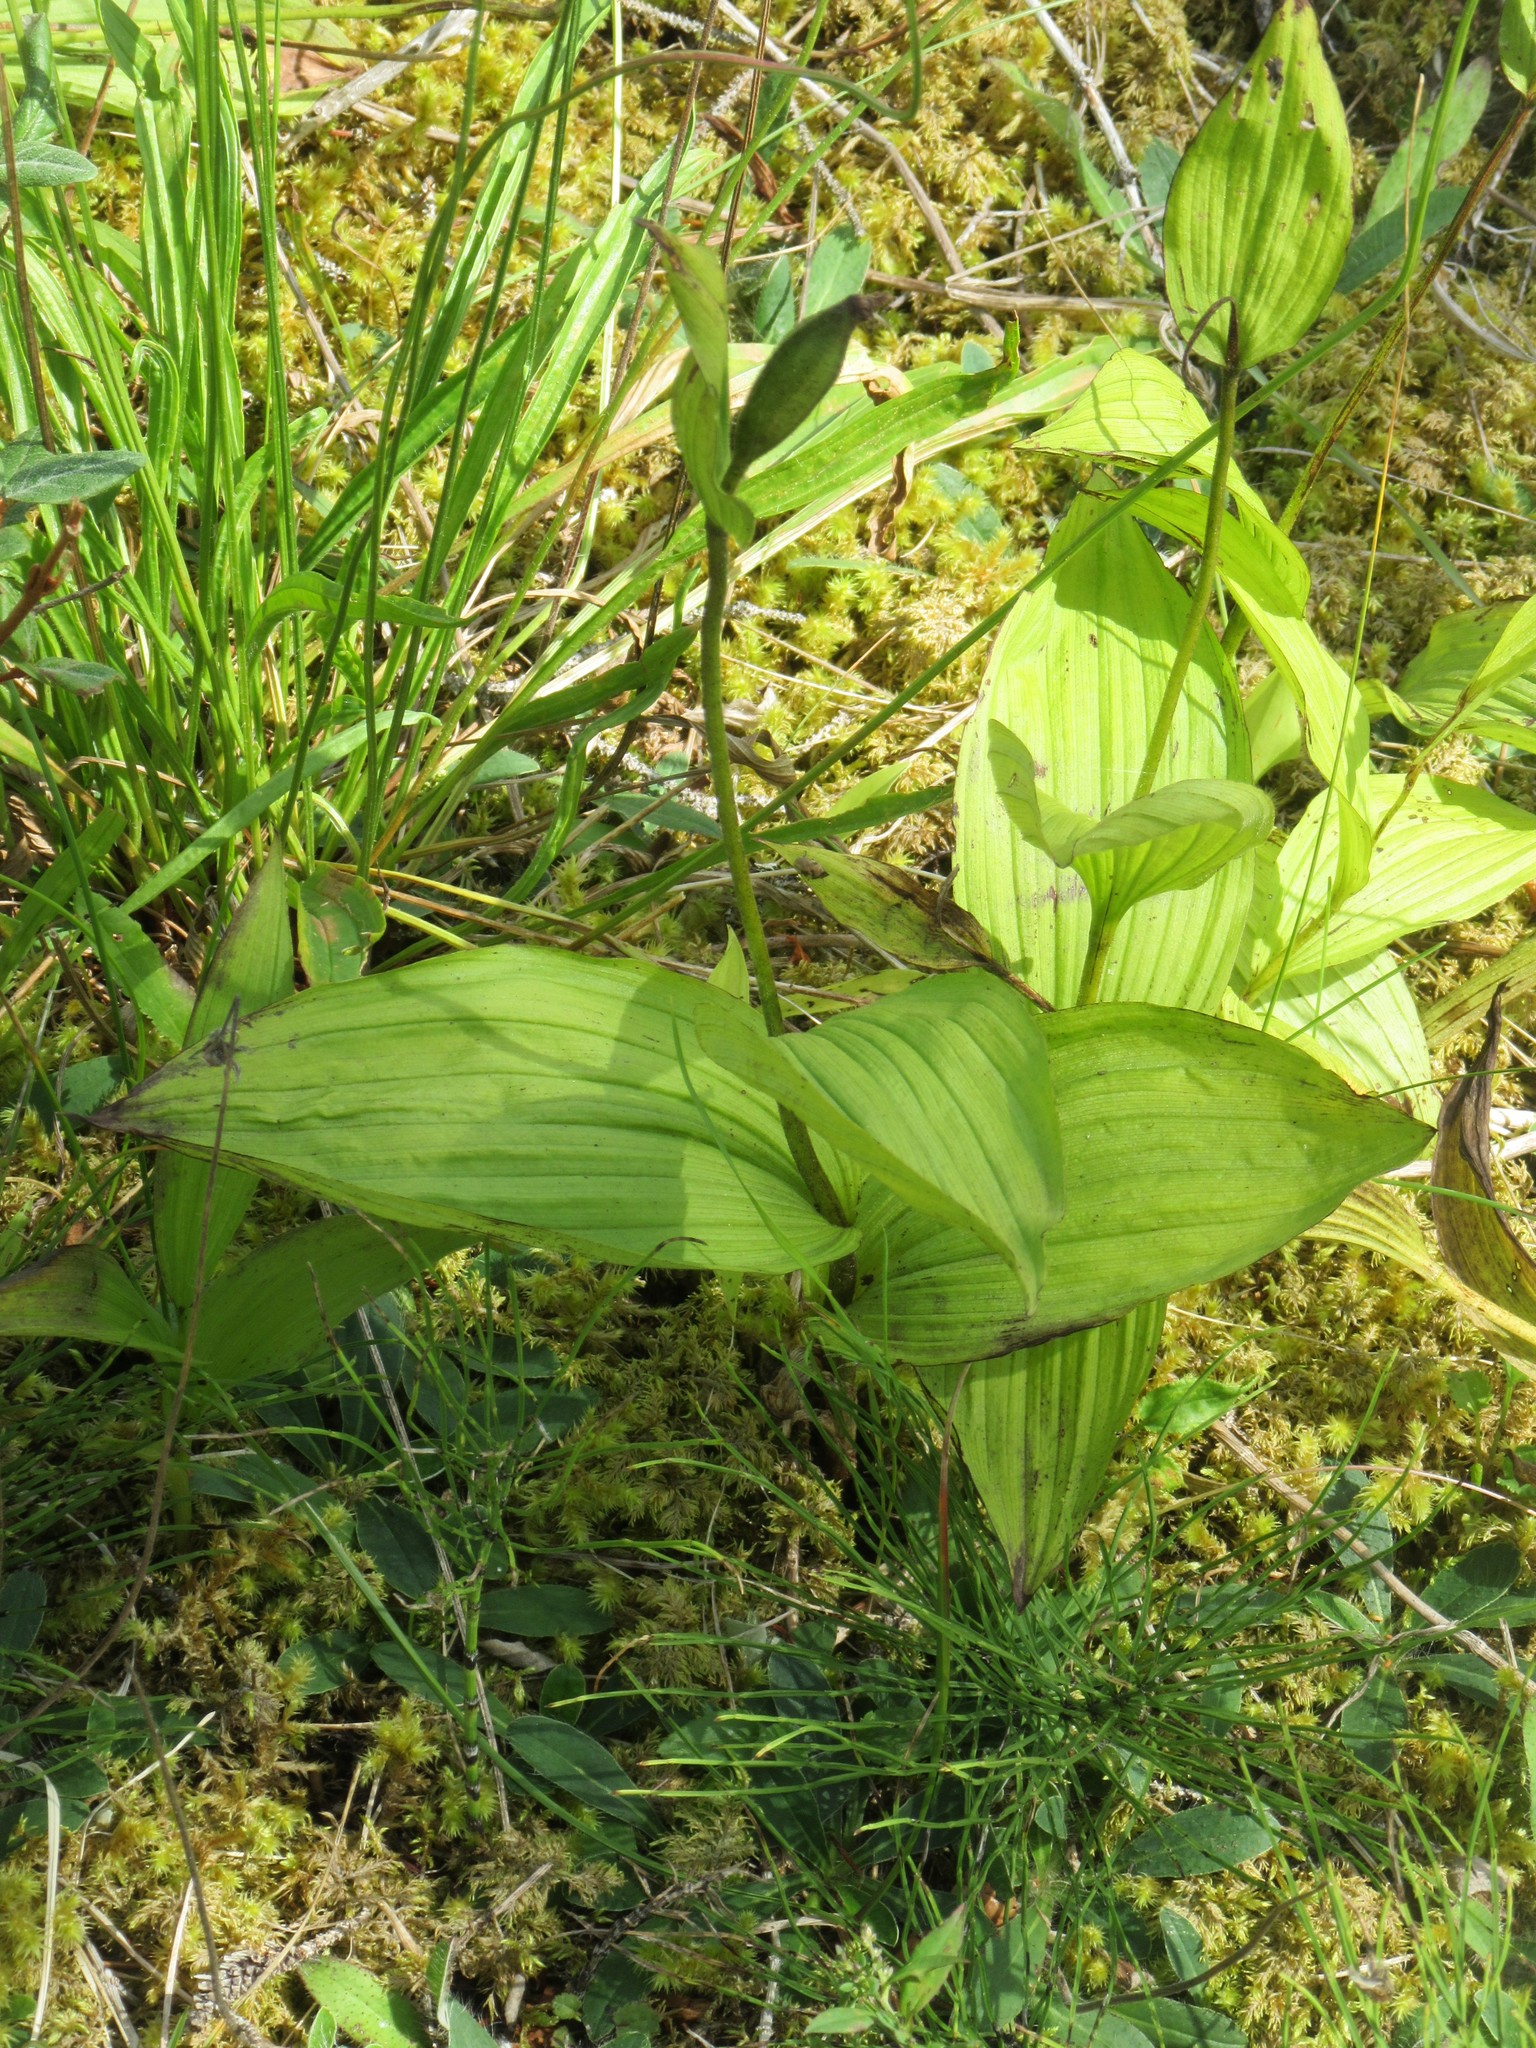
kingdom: Plantae
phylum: Tracheophyta
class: Liliopsida
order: Asparagales
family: Orchidaceae
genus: Cypripedium
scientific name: Cypripedium parviflorum
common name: American yellow lady's-slipper
